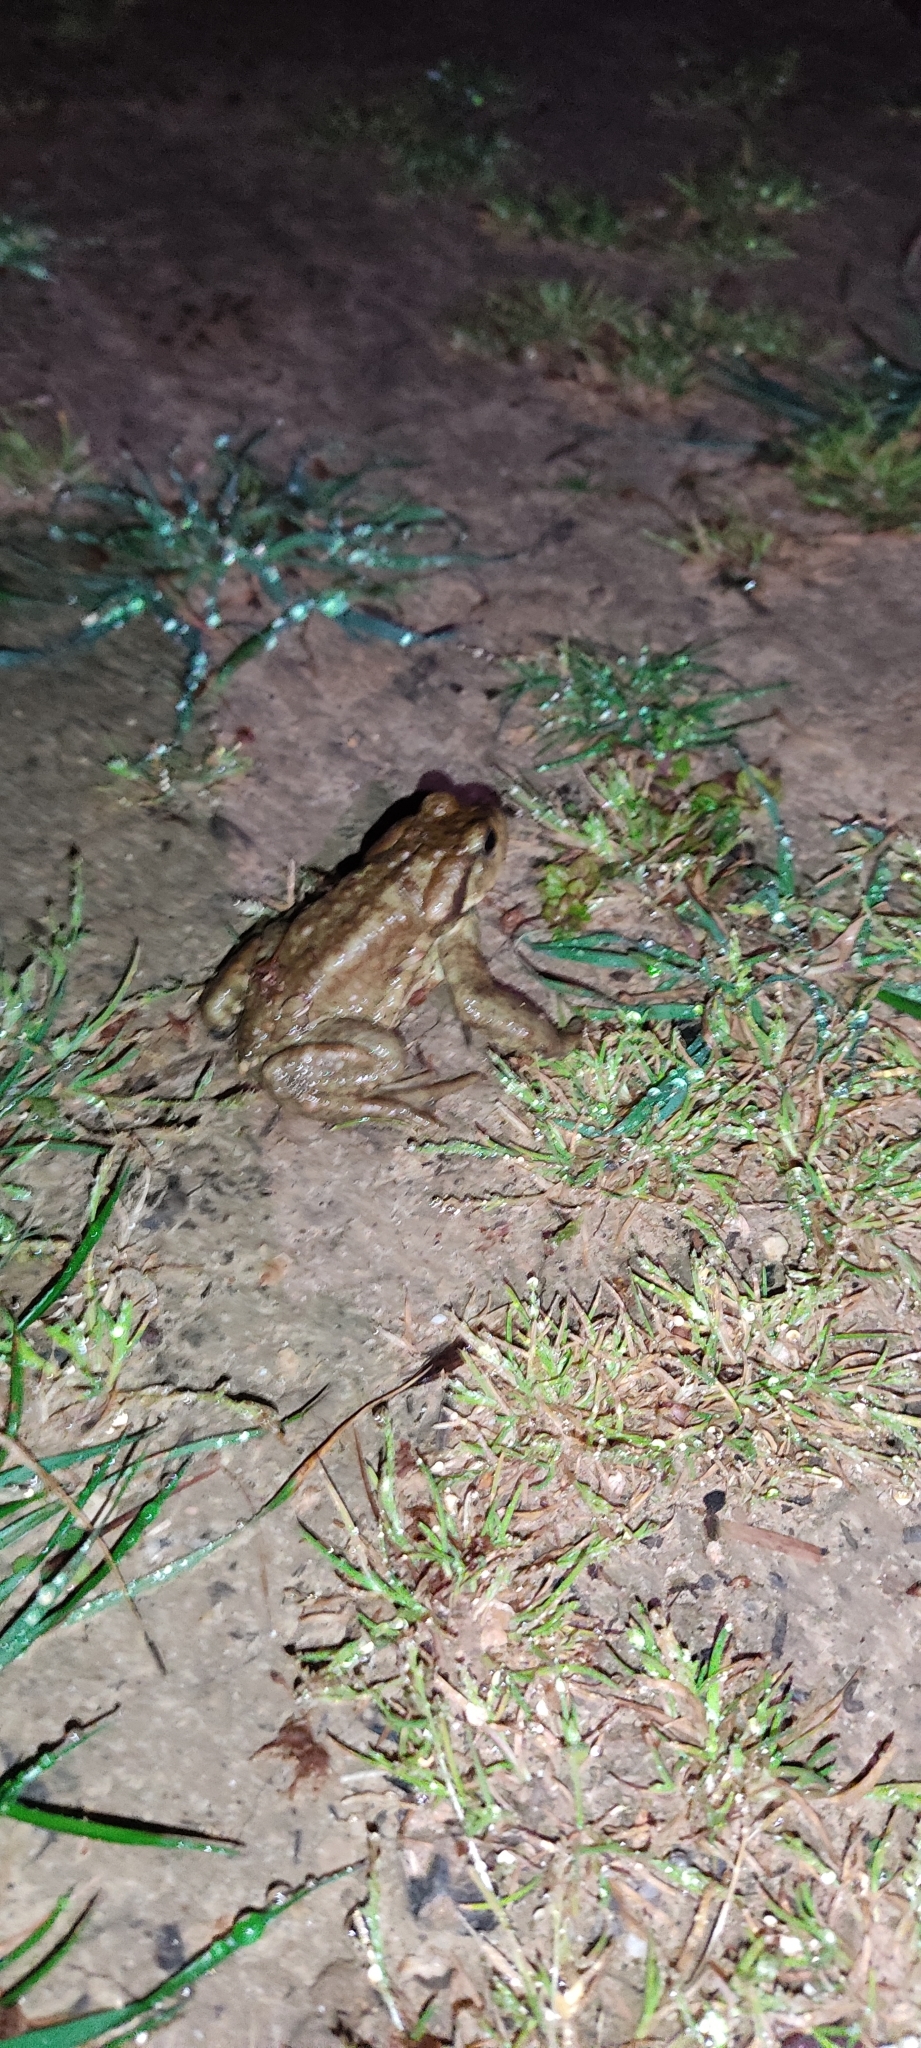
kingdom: Animalia
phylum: Chordata
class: Amphibia
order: Anura
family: Bufonidae
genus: Bufo
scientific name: Bufo spinosus
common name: Western common toad
